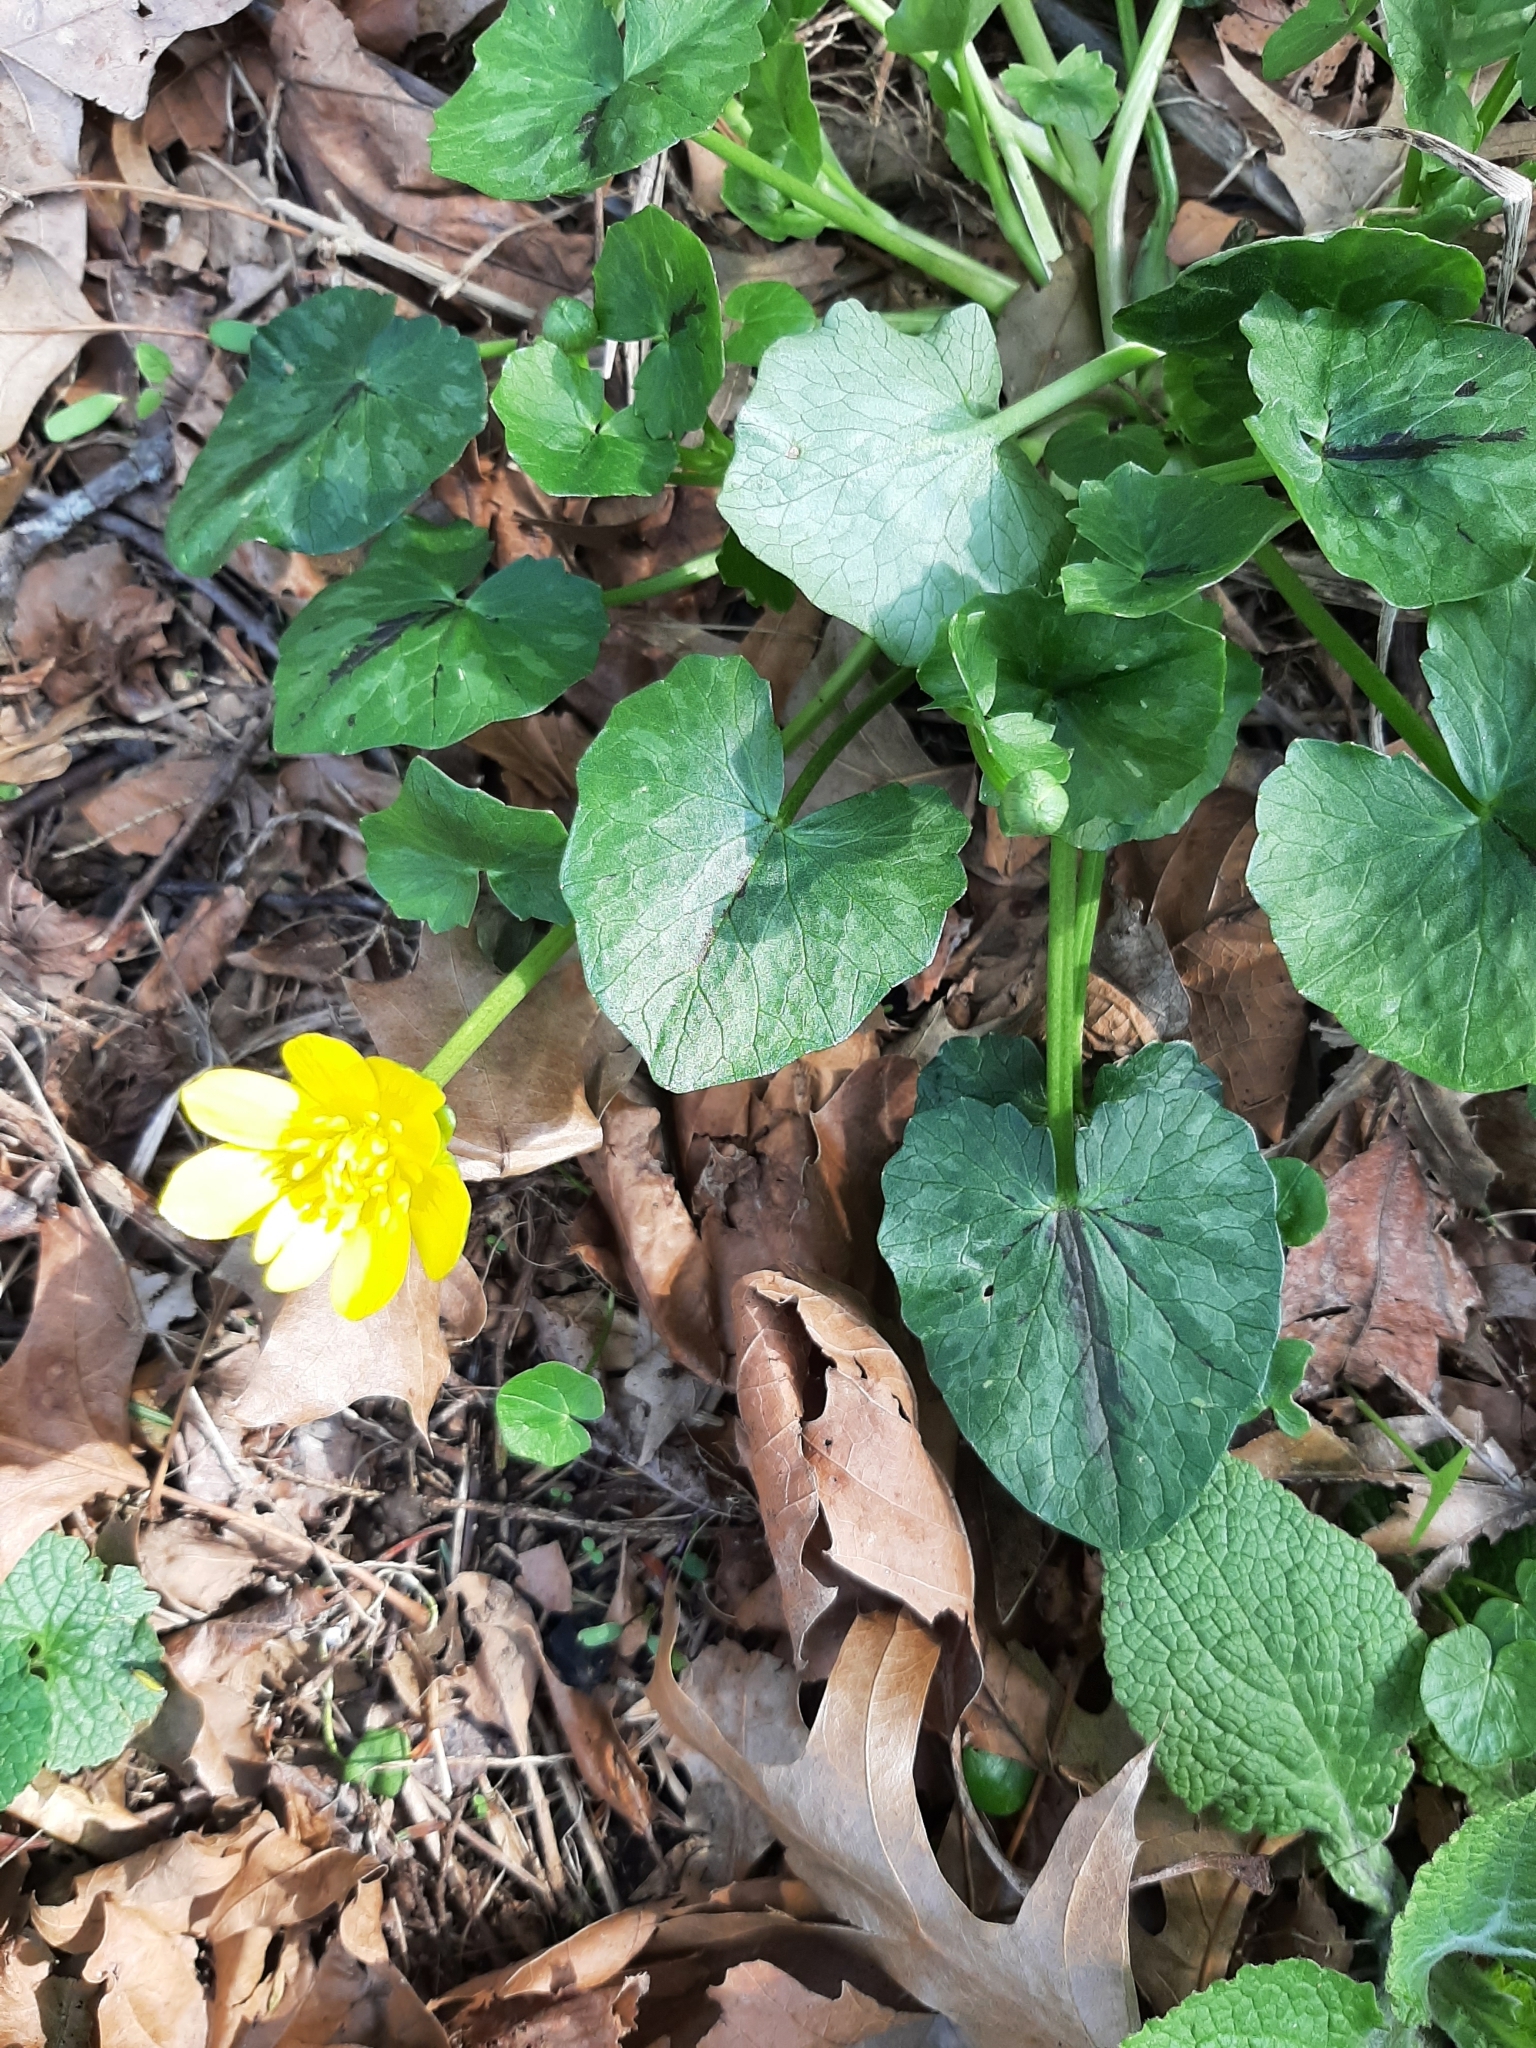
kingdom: Plantae
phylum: Tracheophyta
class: Magnoliopsida
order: Ranunculales
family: Ranunculaceae
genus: Ficaria
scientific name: Ficaria verna
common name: Lesser celandine
